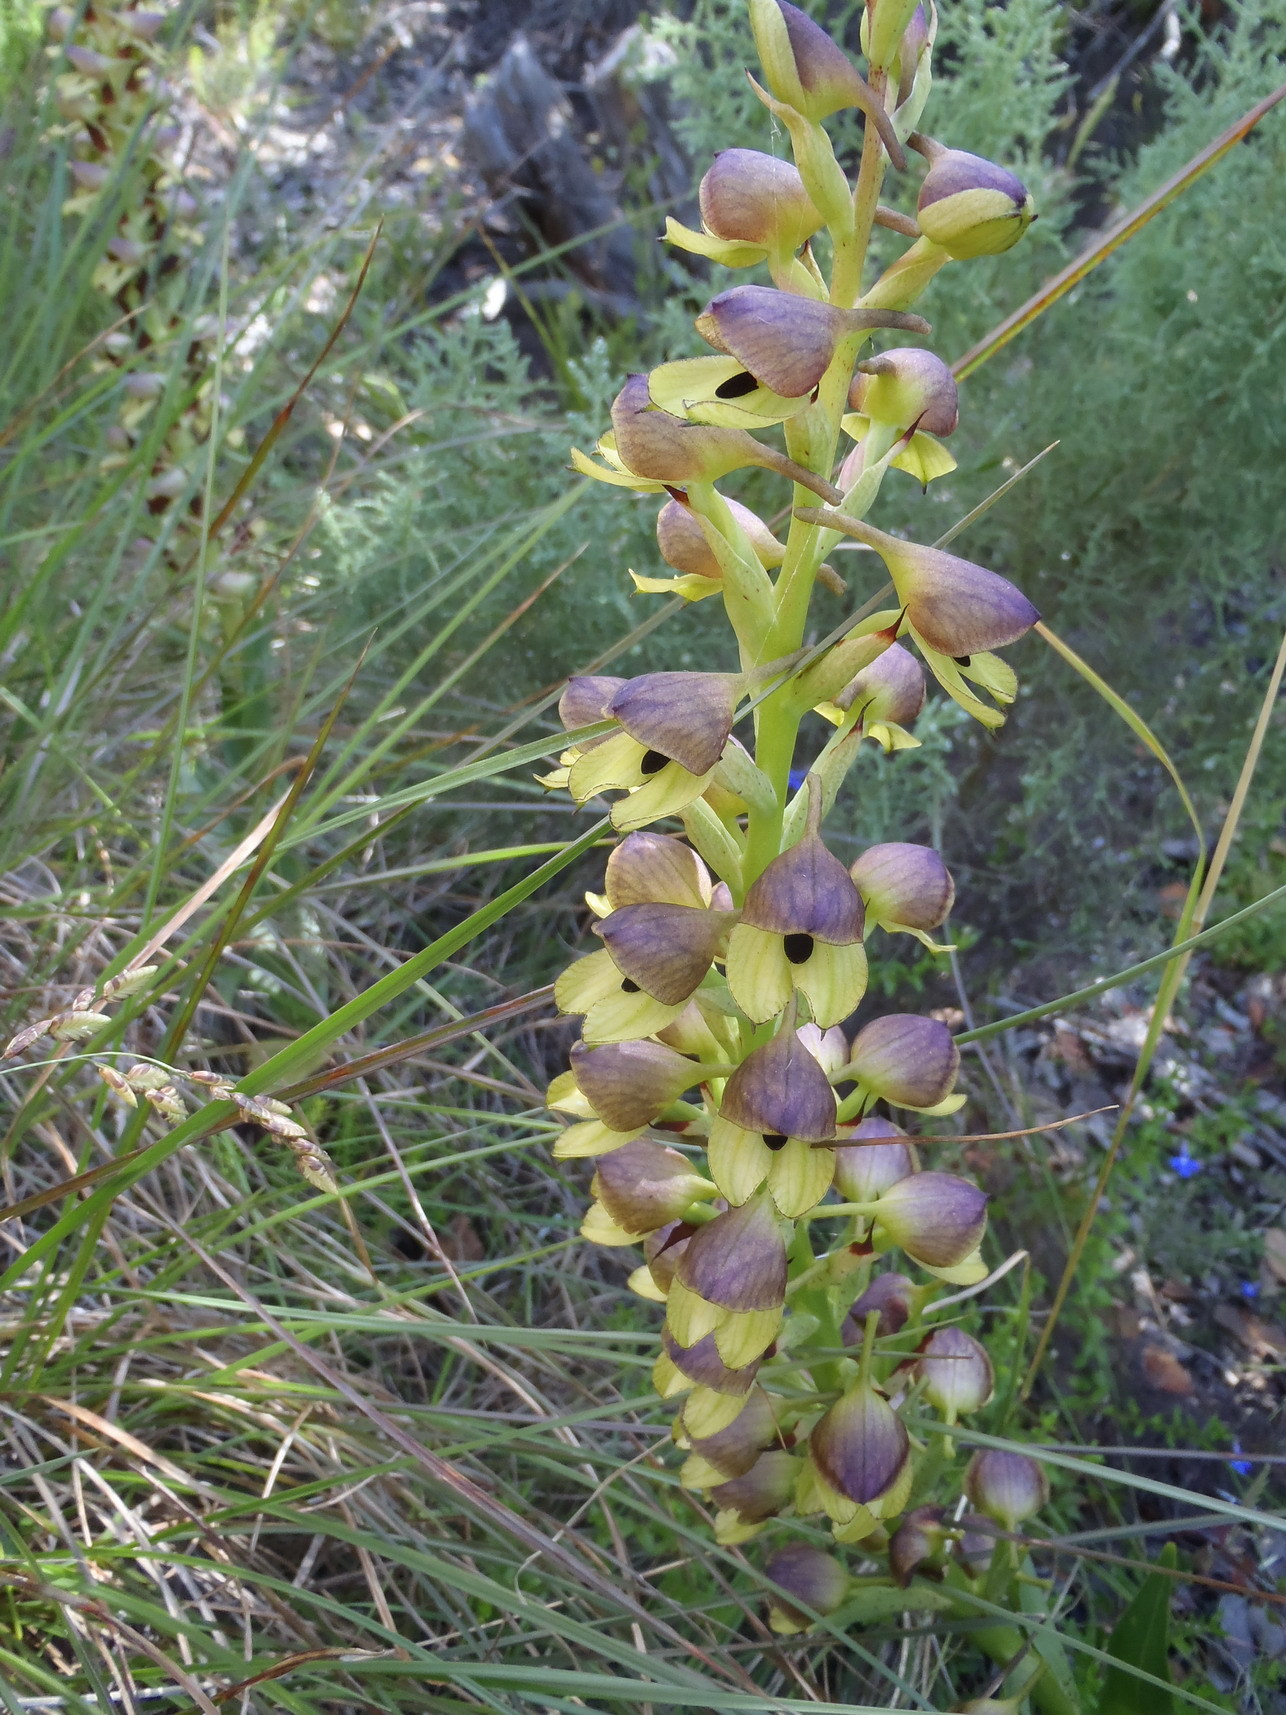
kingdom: Plantae
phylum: Tracheophyta
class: Liliopsida
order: Asparagales
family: Orchidaceae
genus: Disa
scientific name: Disa cornuta
